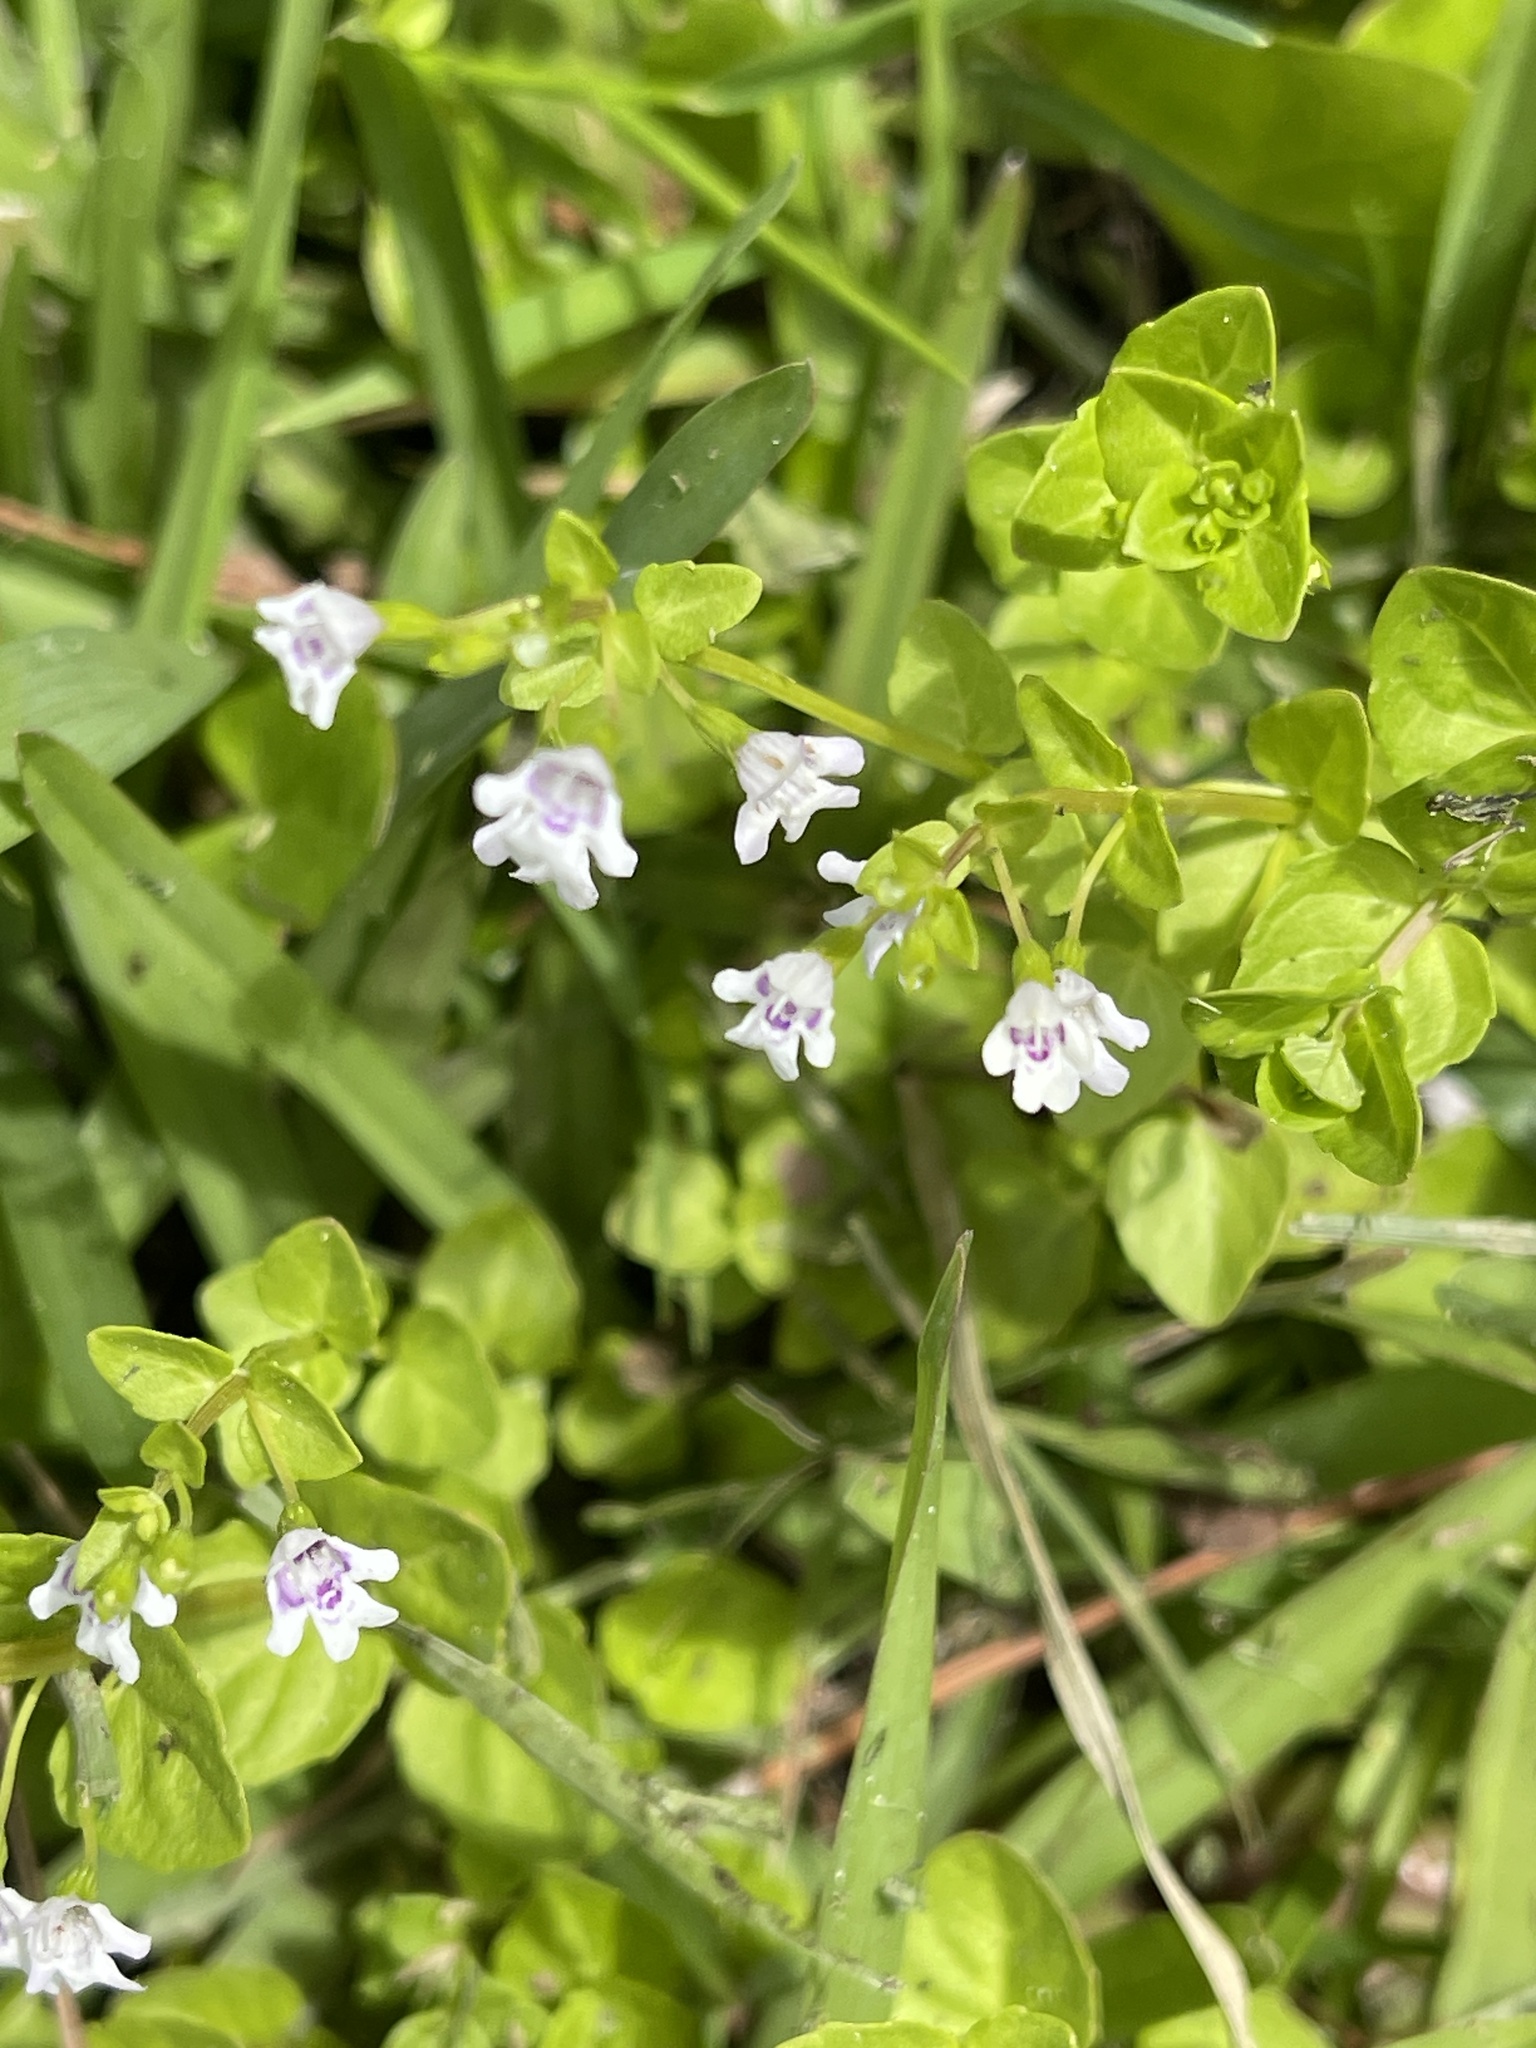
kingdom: Plantae
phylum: Tracheophyta
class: Magnoliopsida
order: Lamiales
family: Lamiaceae
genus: Clinopodium
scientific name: Clinopodium brownei
